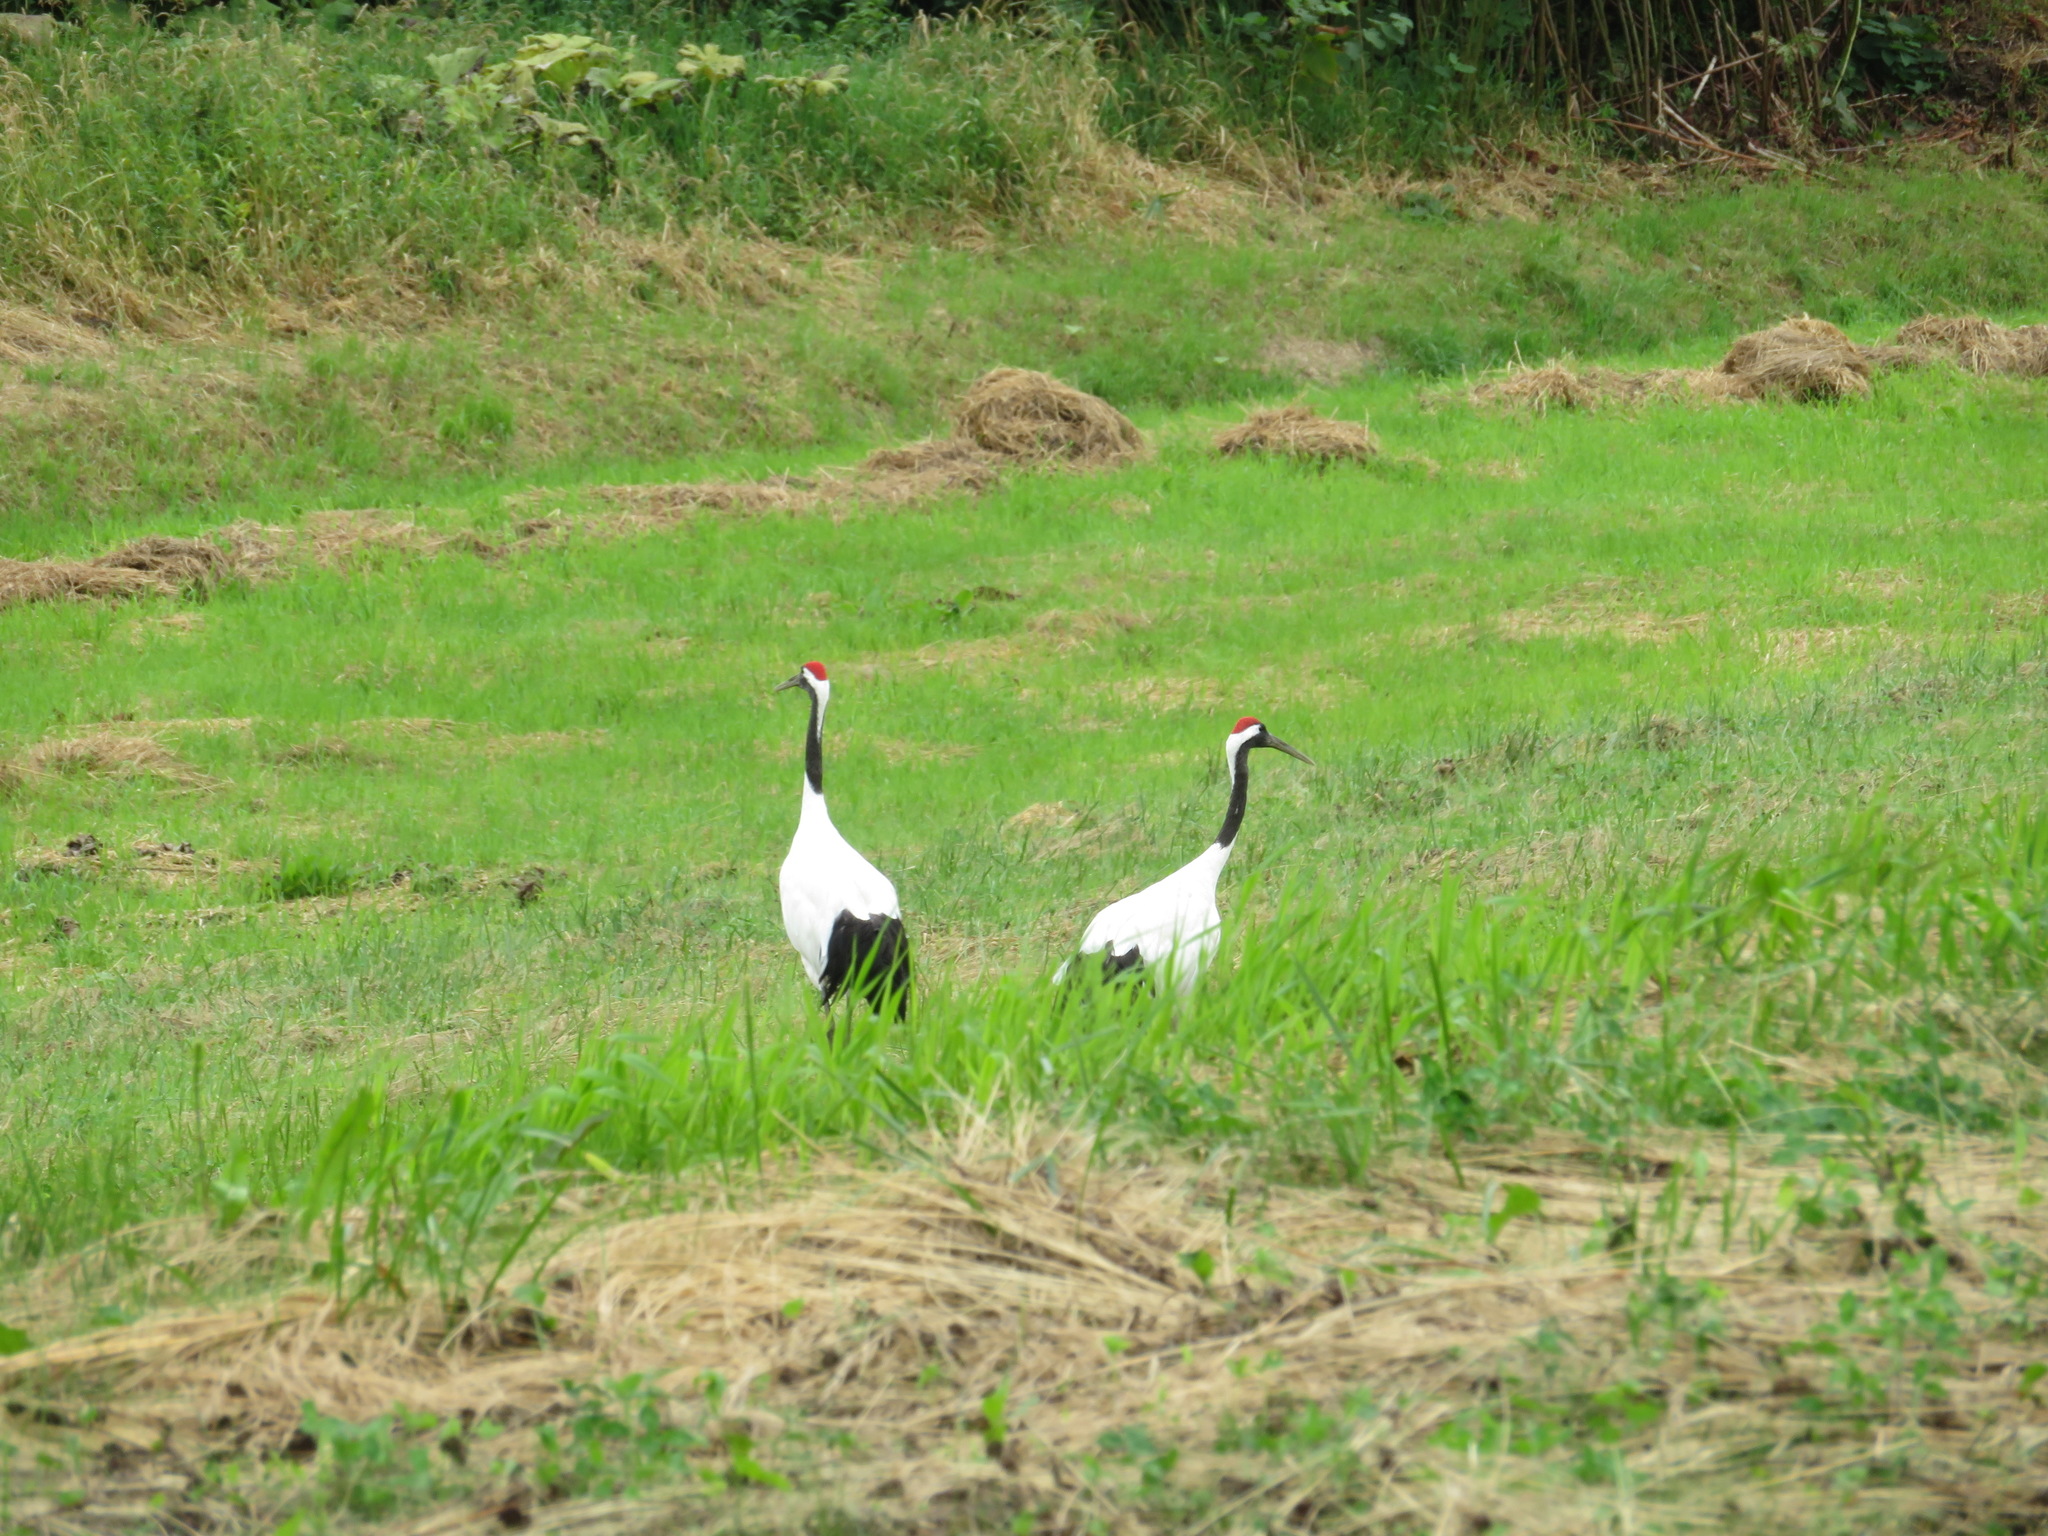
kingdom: Animalia
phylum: Chordata
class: Aves
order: Gruiformes
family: Gruidae
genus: Grus
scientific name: Grus japonensis
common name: Red-crowned crane
